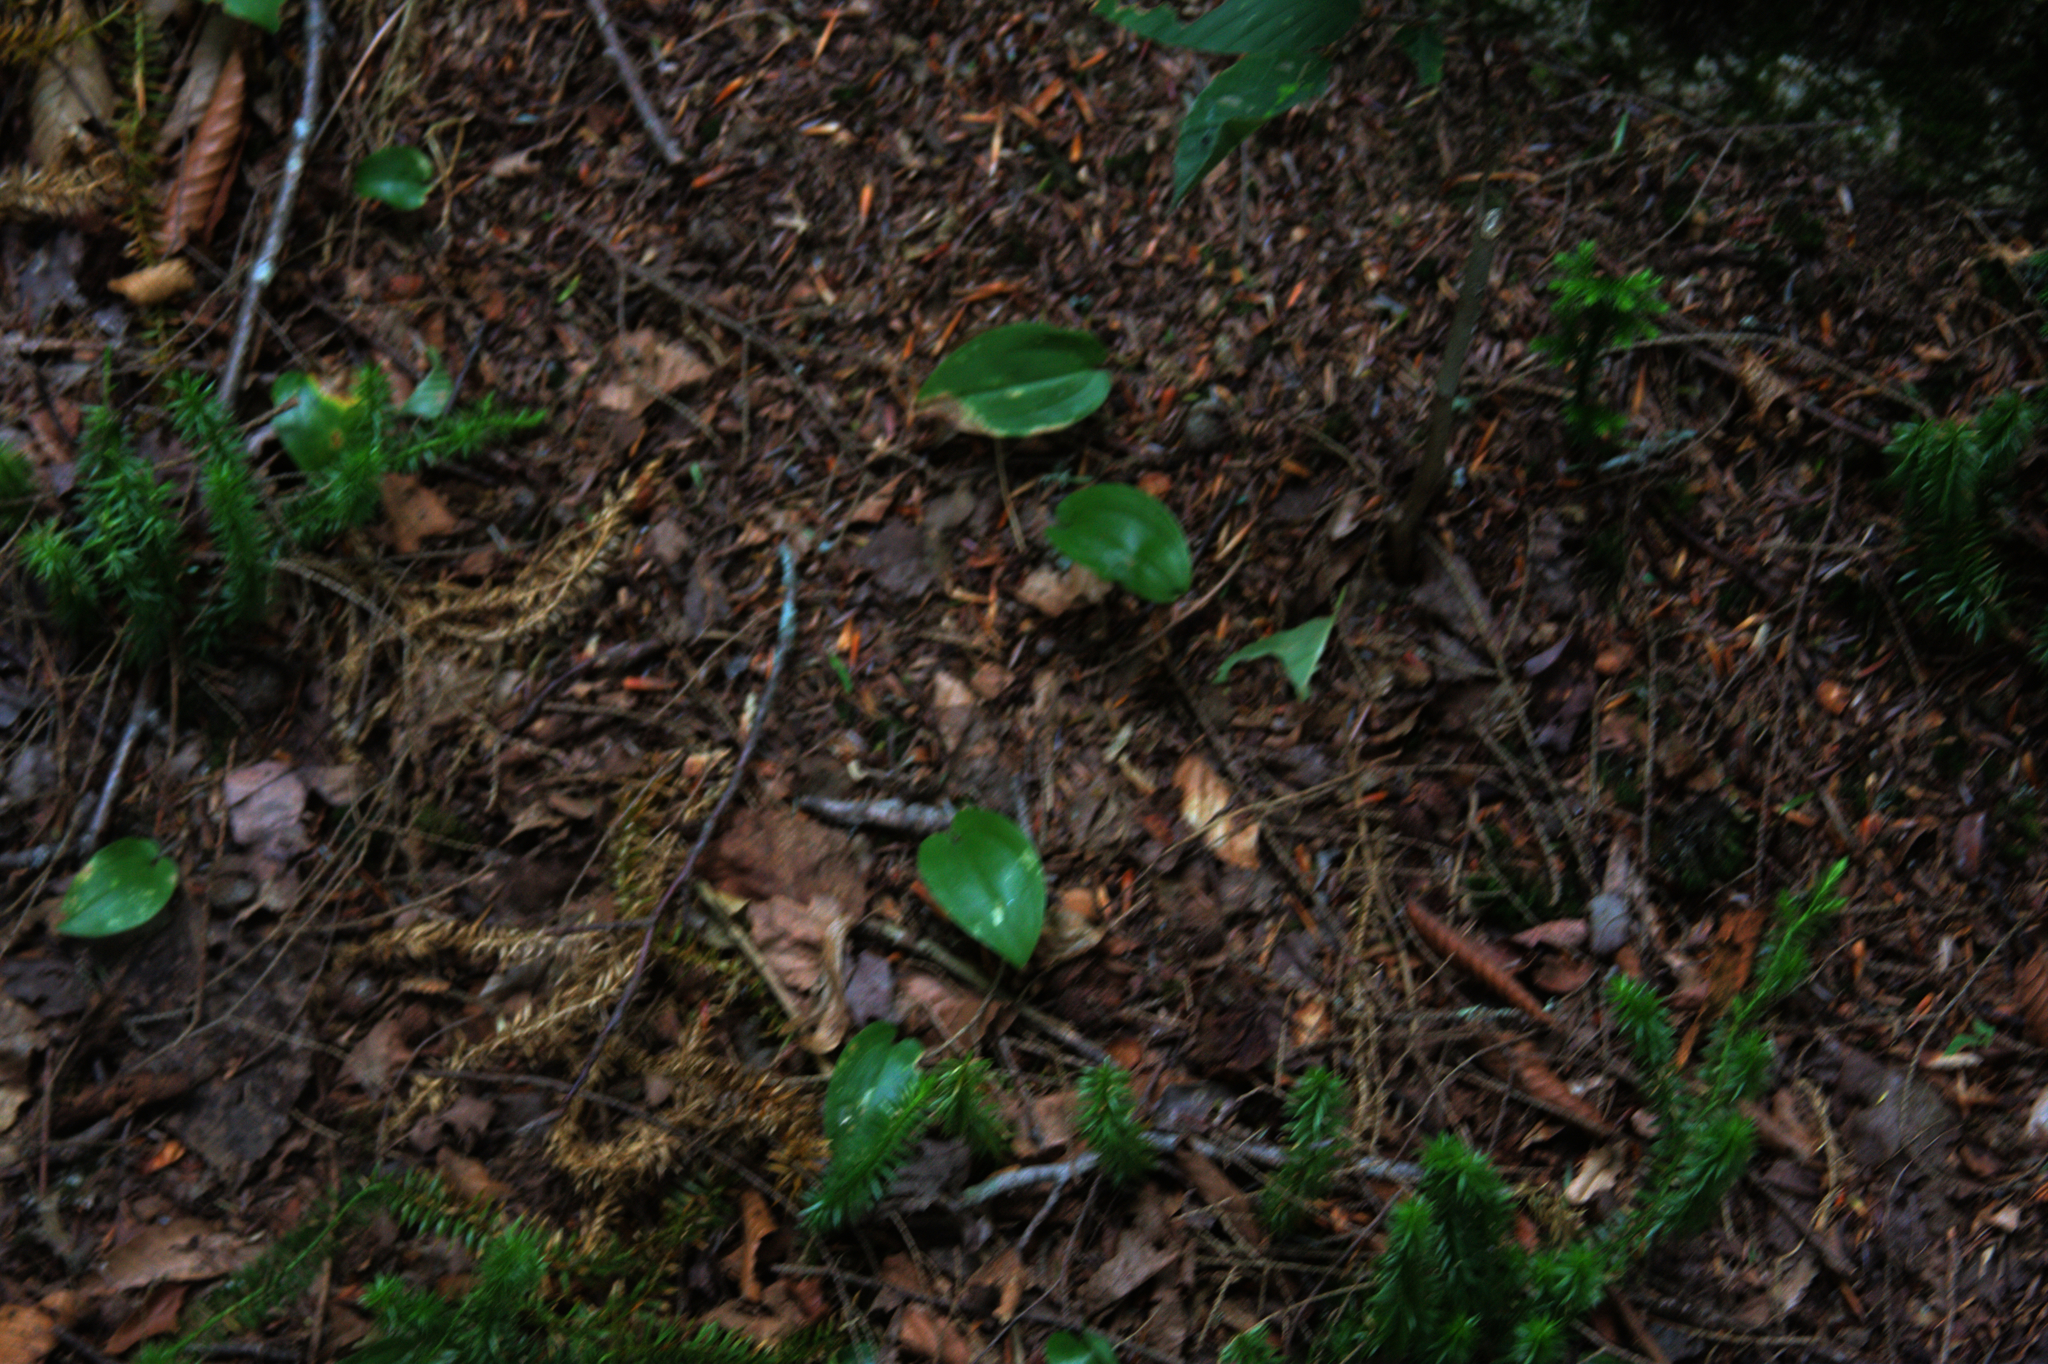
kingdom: Plantae
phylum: Tracheophyta
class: Liliopsida
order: Asparagales
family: Asparagaceae
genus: Maianthemum
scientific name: Maianthemum canadense
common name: False lily-of-the-valley
